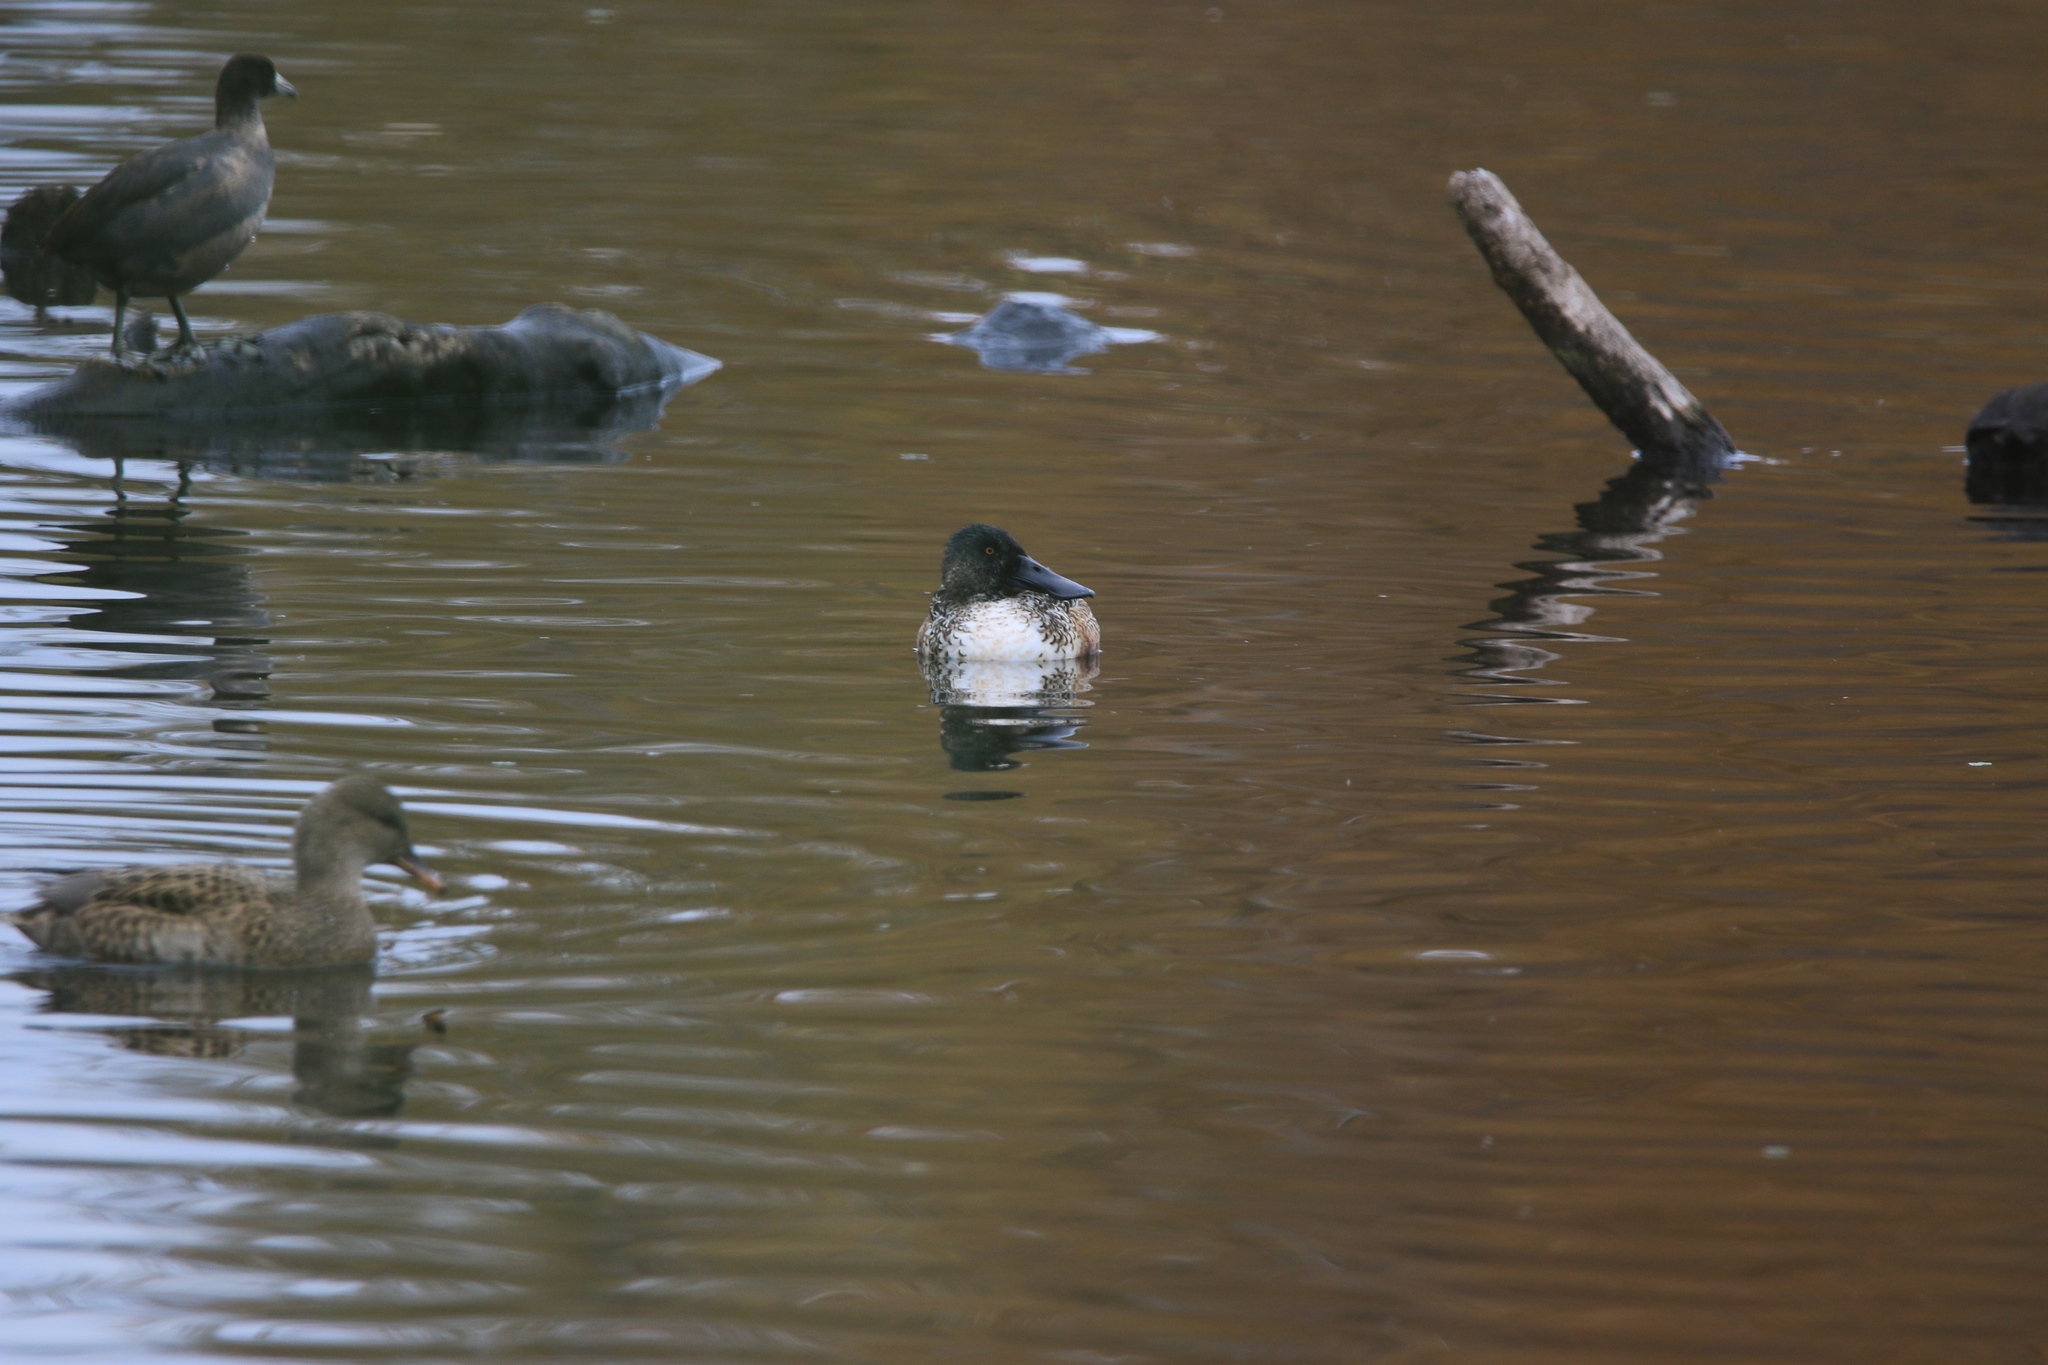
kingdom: Animalia
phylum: Chordata
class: Aves
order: Anseriformes
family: Anatidae
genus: Spatula
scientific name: Spatula clypeata
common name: Northern shoveler
